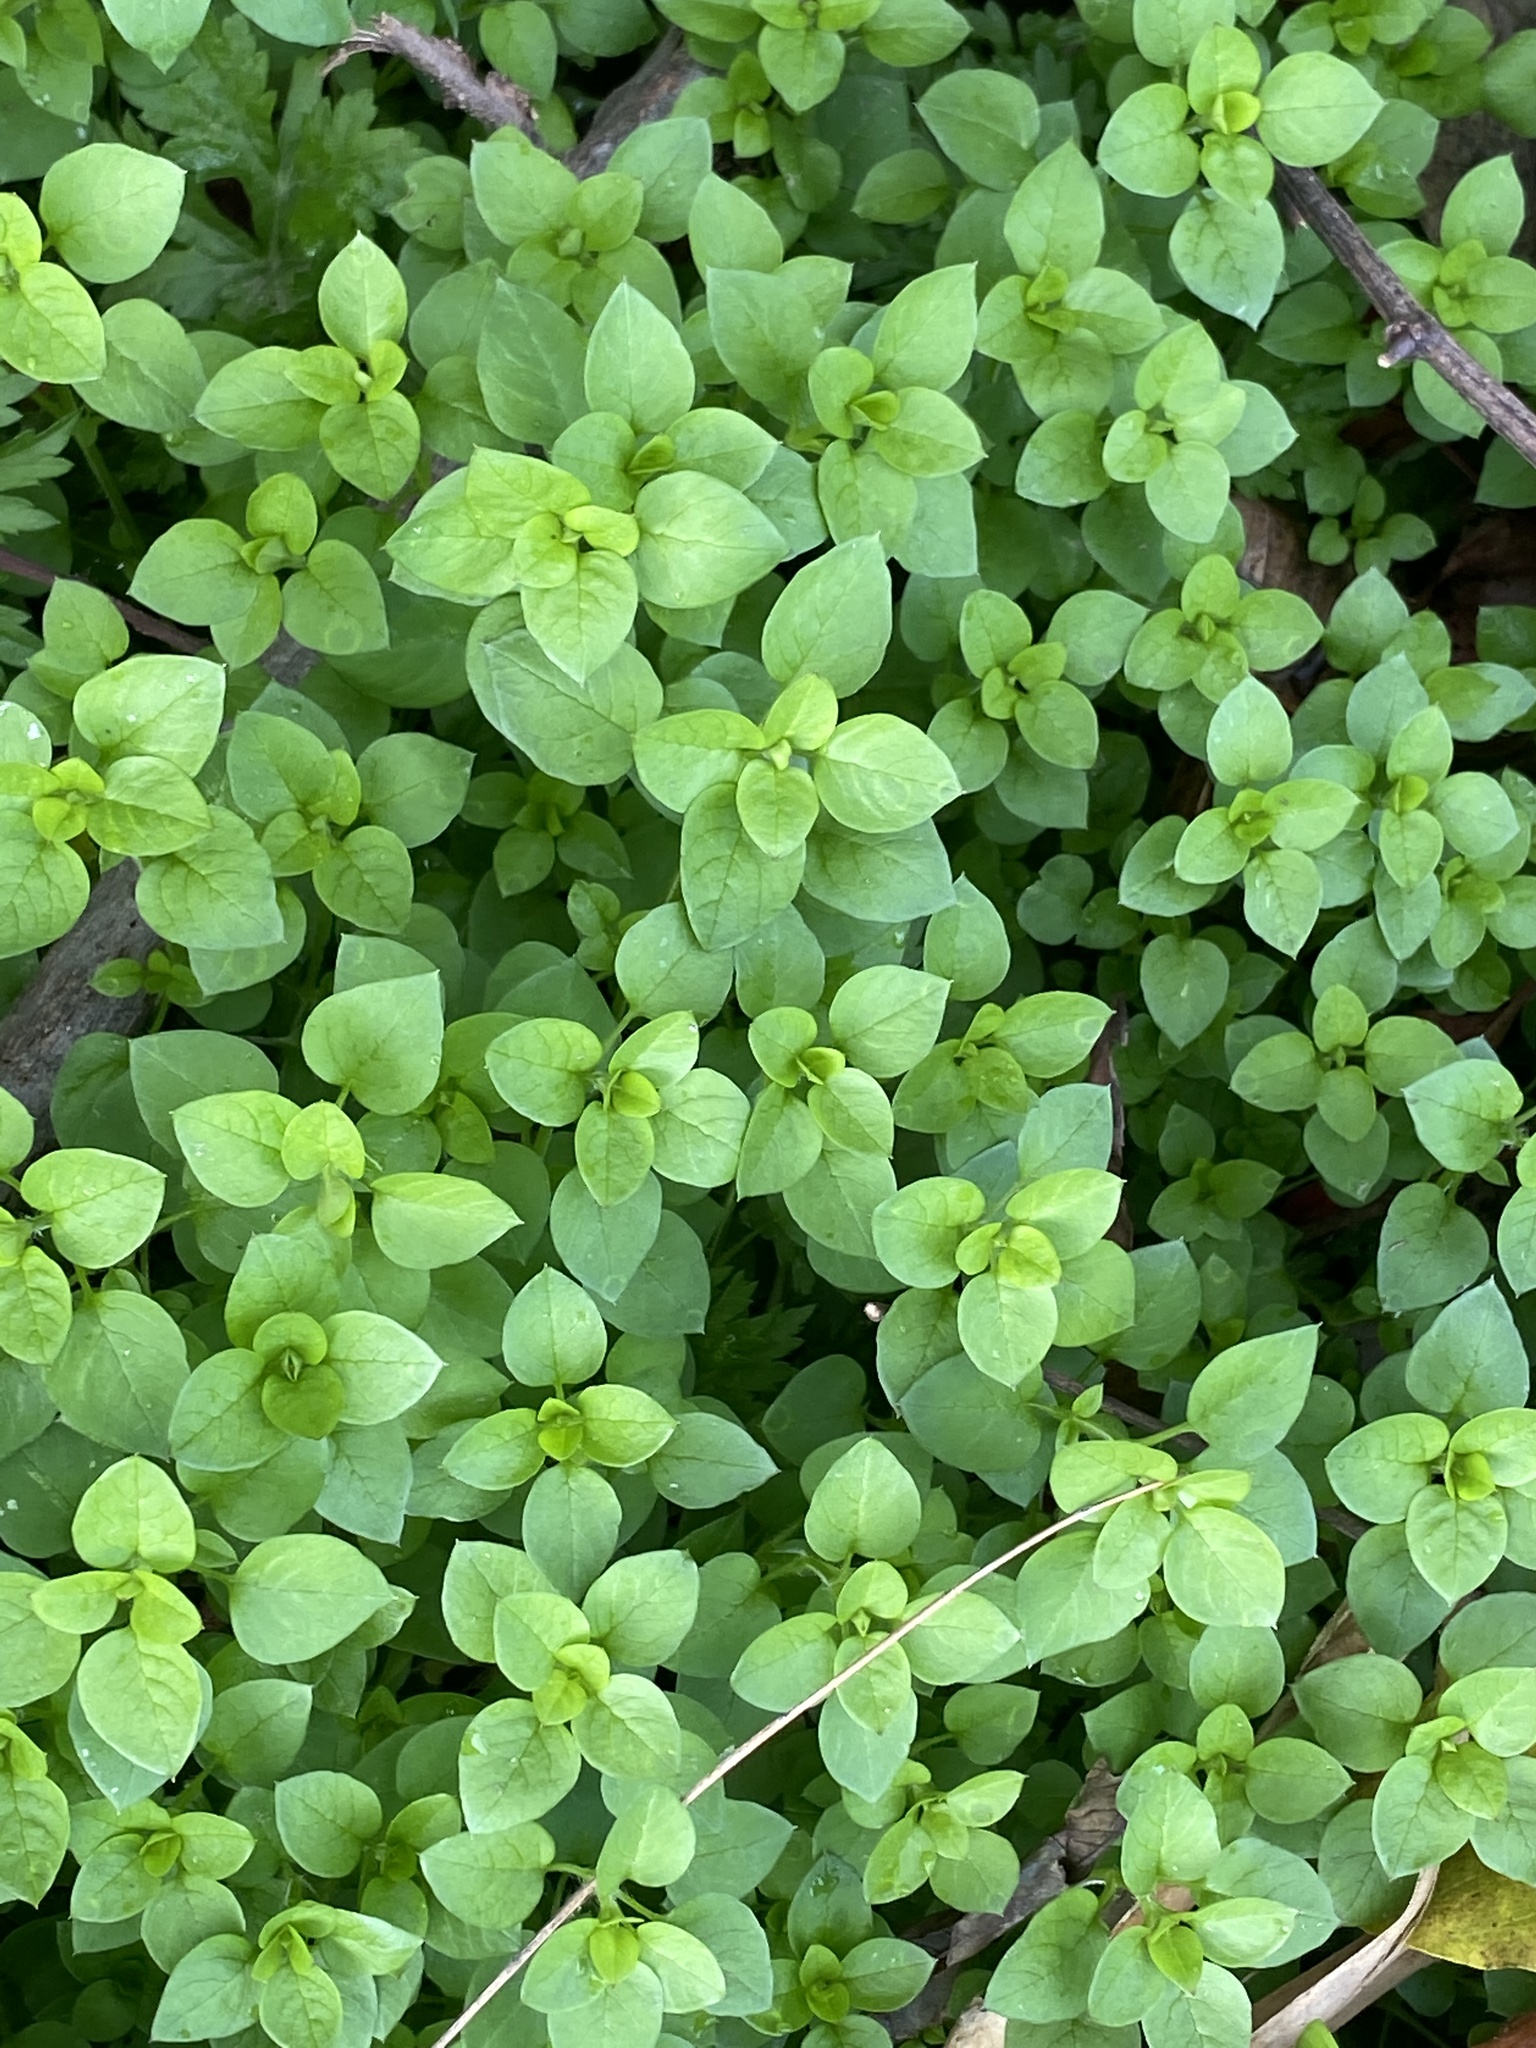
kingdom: Plantae
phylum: Tracheophyta
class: Magnoliopsida
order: Caryophyllales
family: Caryophyllaceae
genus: Stellaria
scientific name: Stellaria media
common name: Common chickweed
